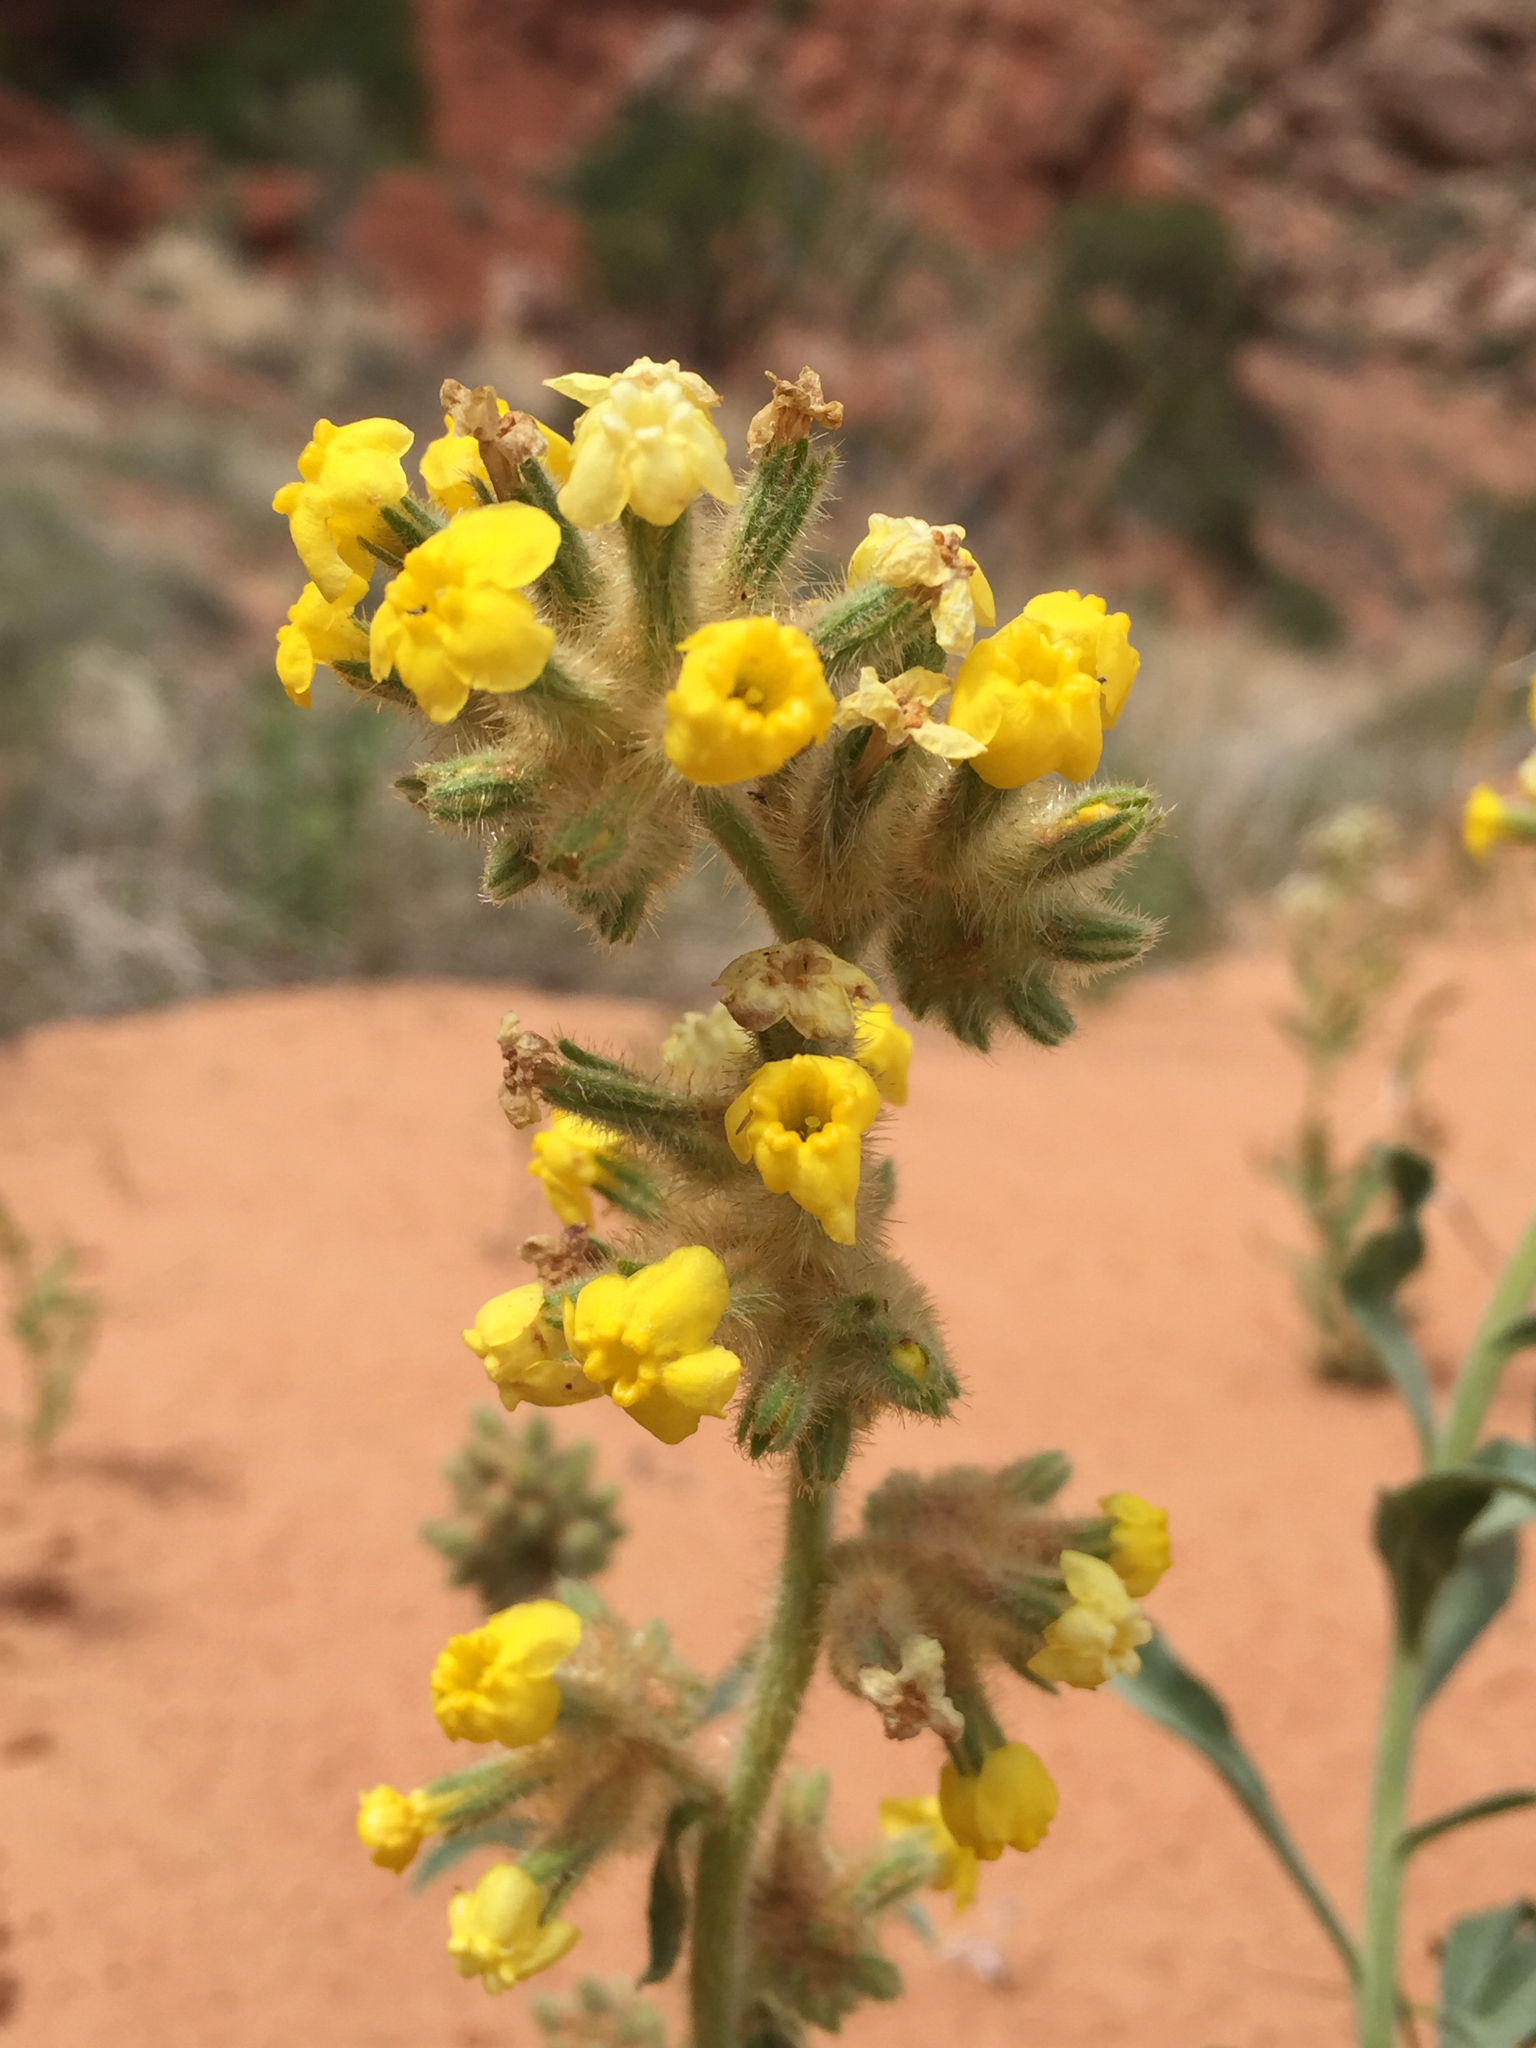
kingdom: Plantae
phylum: Tracheophyta
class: Magnoliopsida
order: Boraginales
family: Boraginaceae
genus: Oreocarya
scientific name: Oreocarya flava
